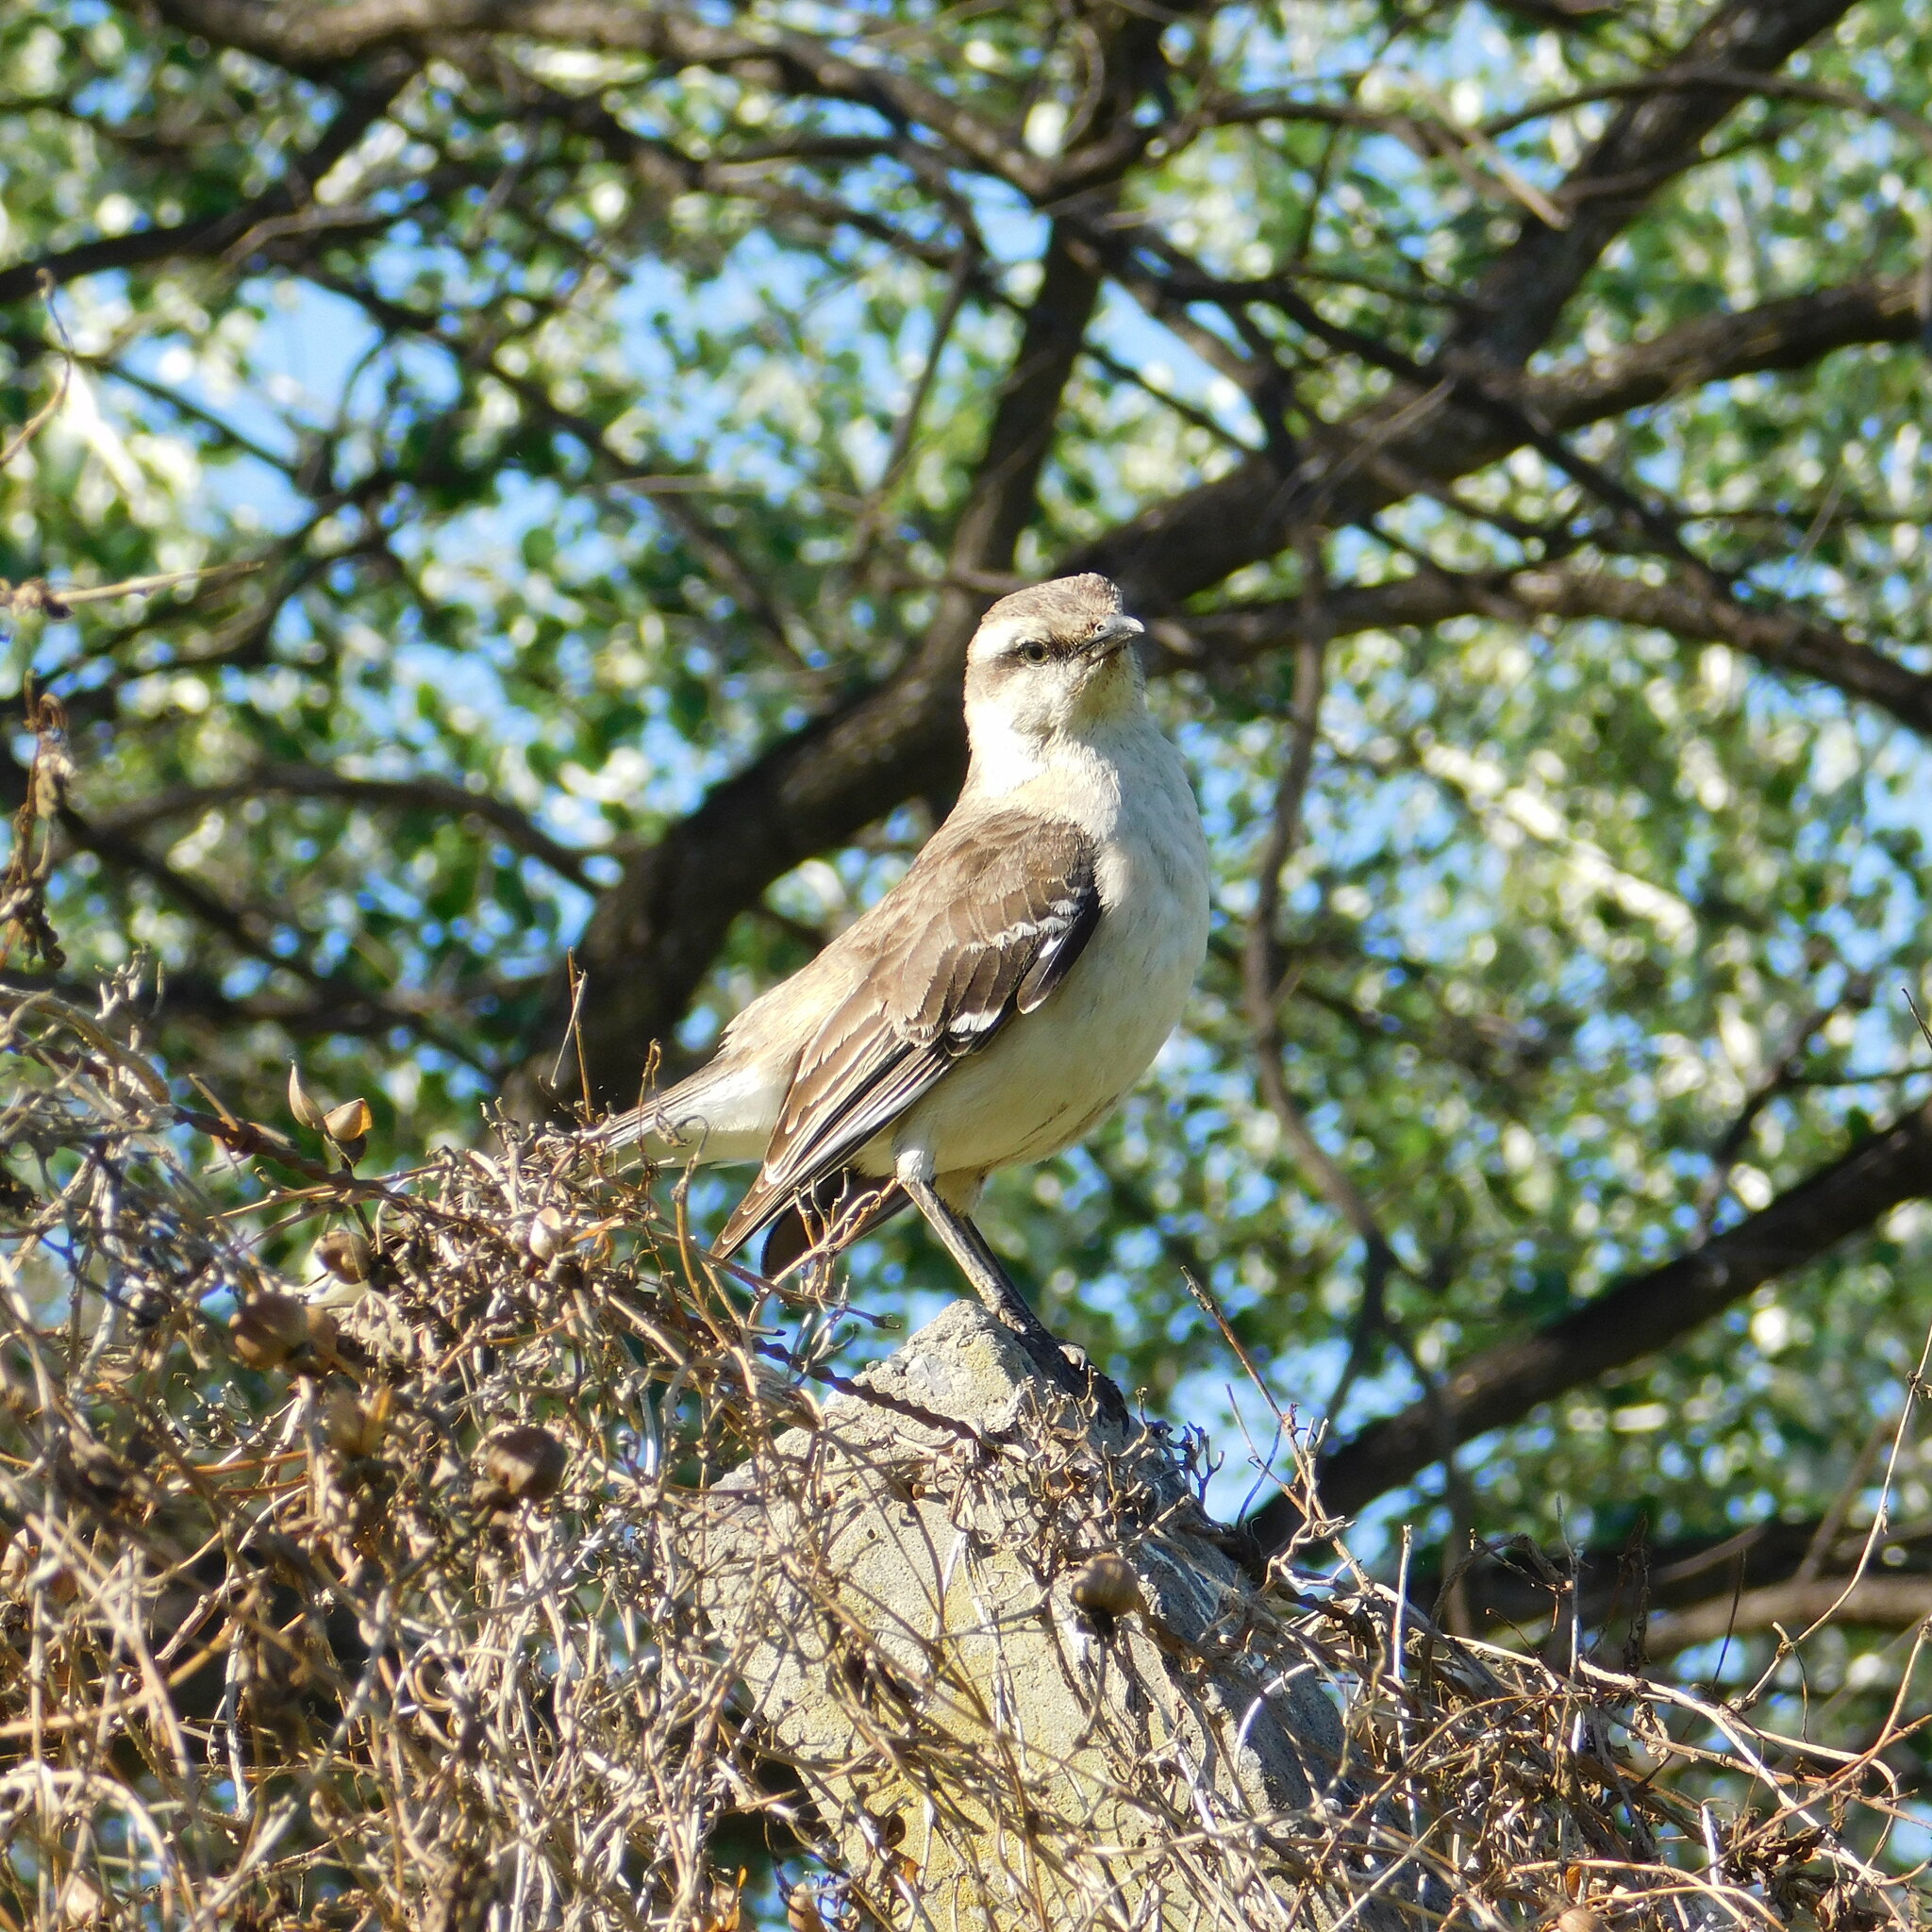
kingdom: Animalia
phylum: Chordata
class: Aves
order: Passeriformes
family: Mimidae
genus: Mimus
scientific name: Mimus saturninus
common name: Chalk-browed mockingbird
